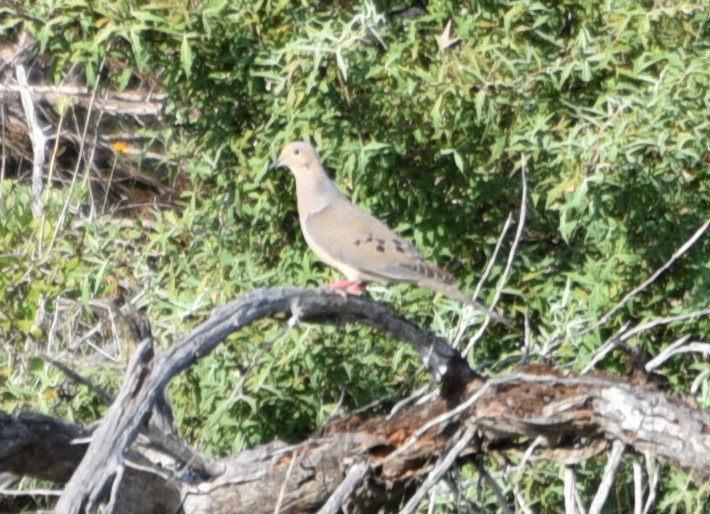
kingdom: Animalia
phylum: Chordata
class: Aves
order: Columbiformes
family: Columbidae
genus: Zenaida
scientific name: Zenaida macroura
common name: Mourning dove
